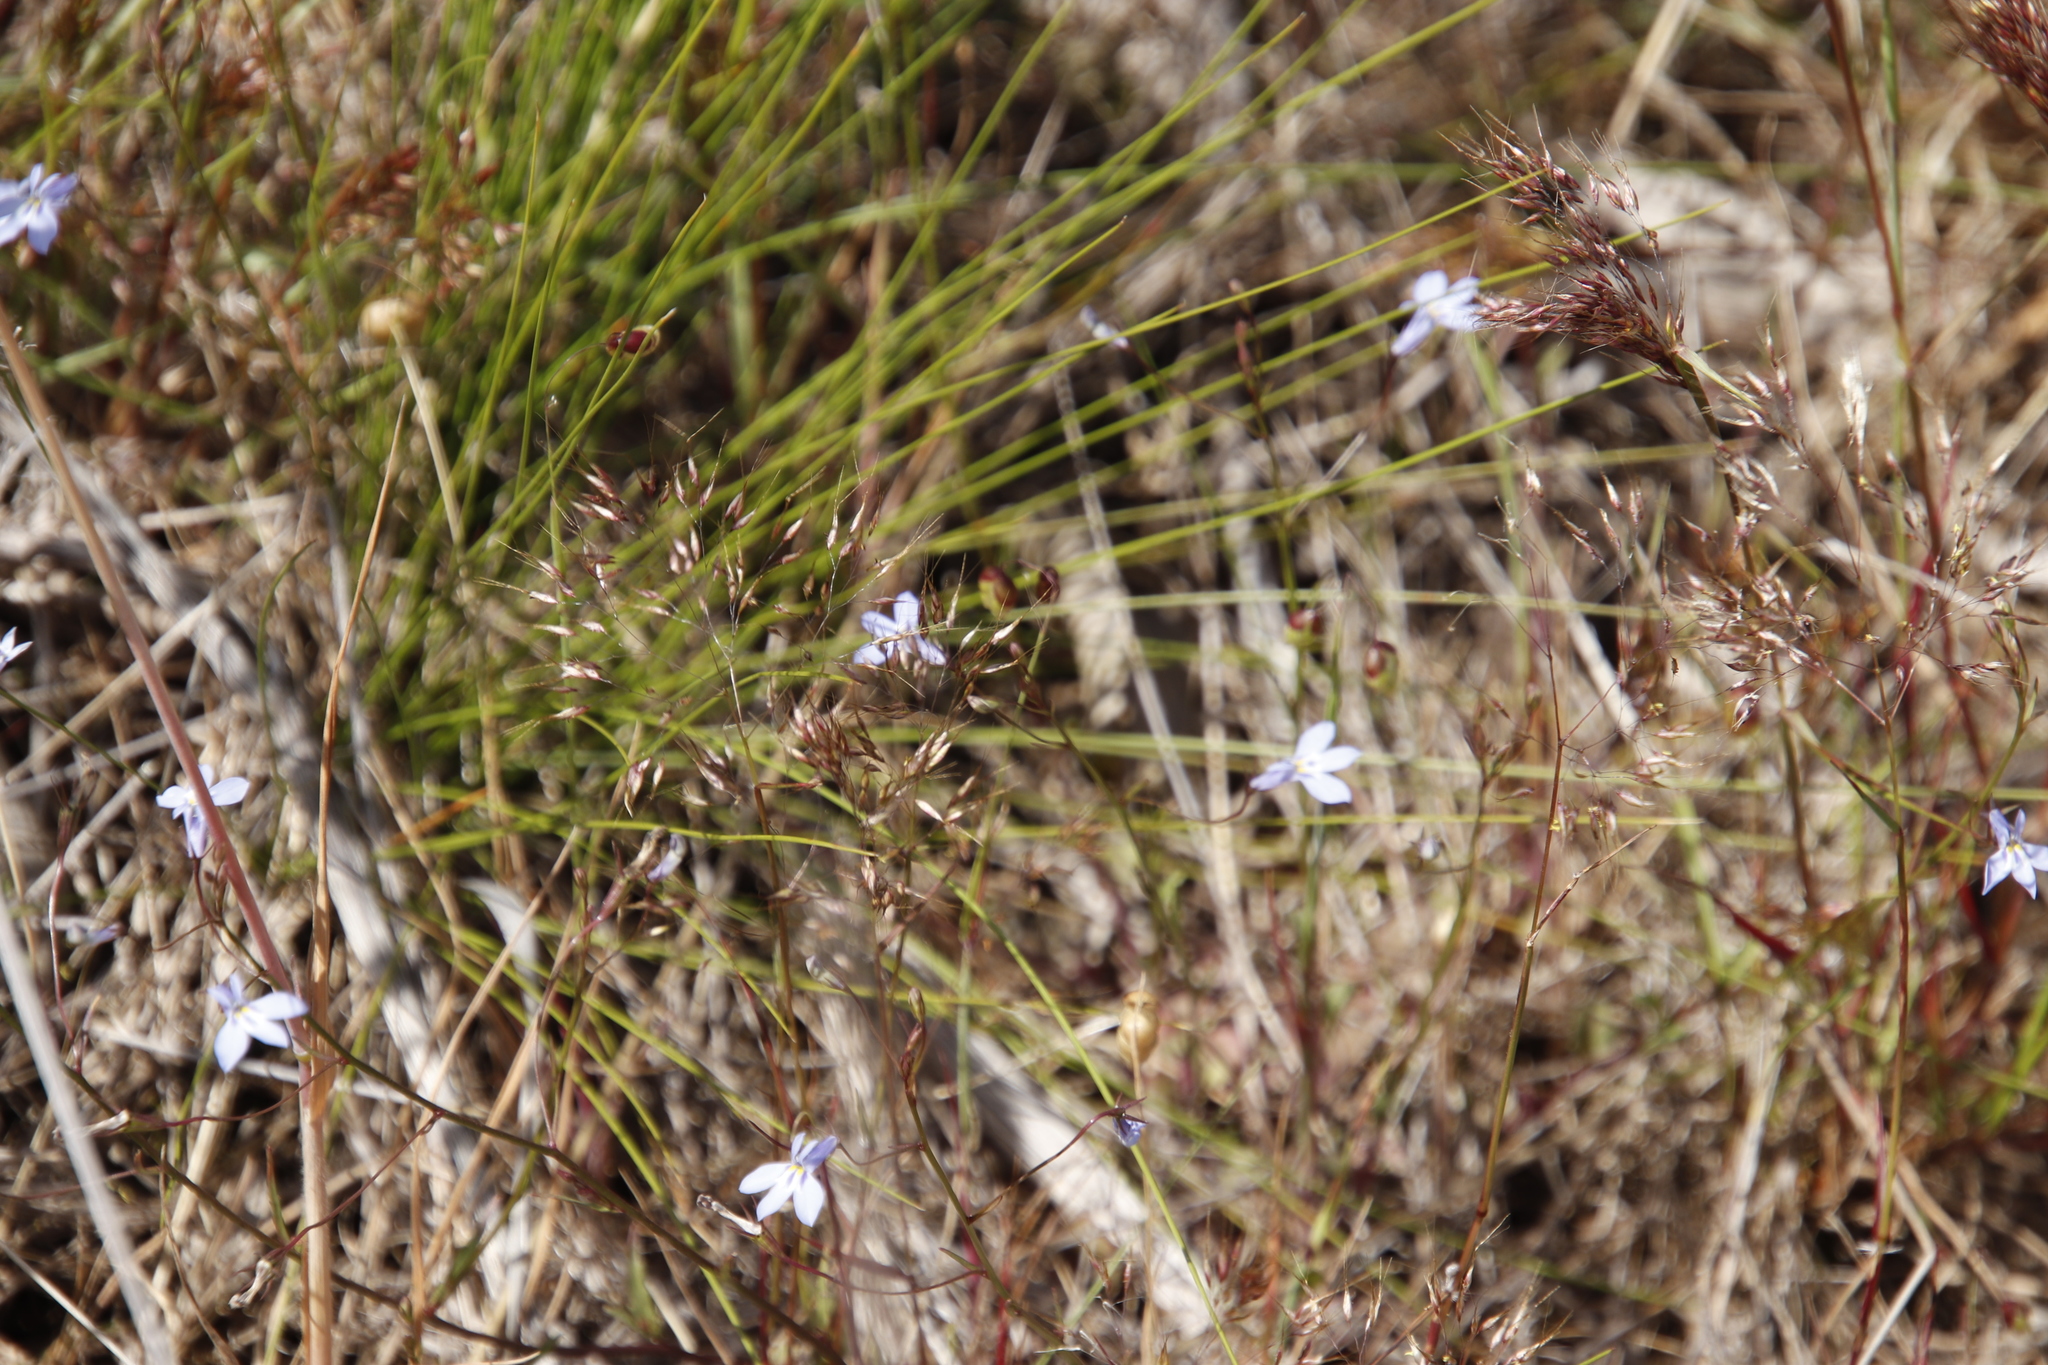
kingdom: Plantae
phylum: Tracheophyta
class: Magnoliopsida
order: Asterales
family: Campanulaceae
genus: Lobelia
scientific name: Lobelia erinus
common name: Edging lobelia
